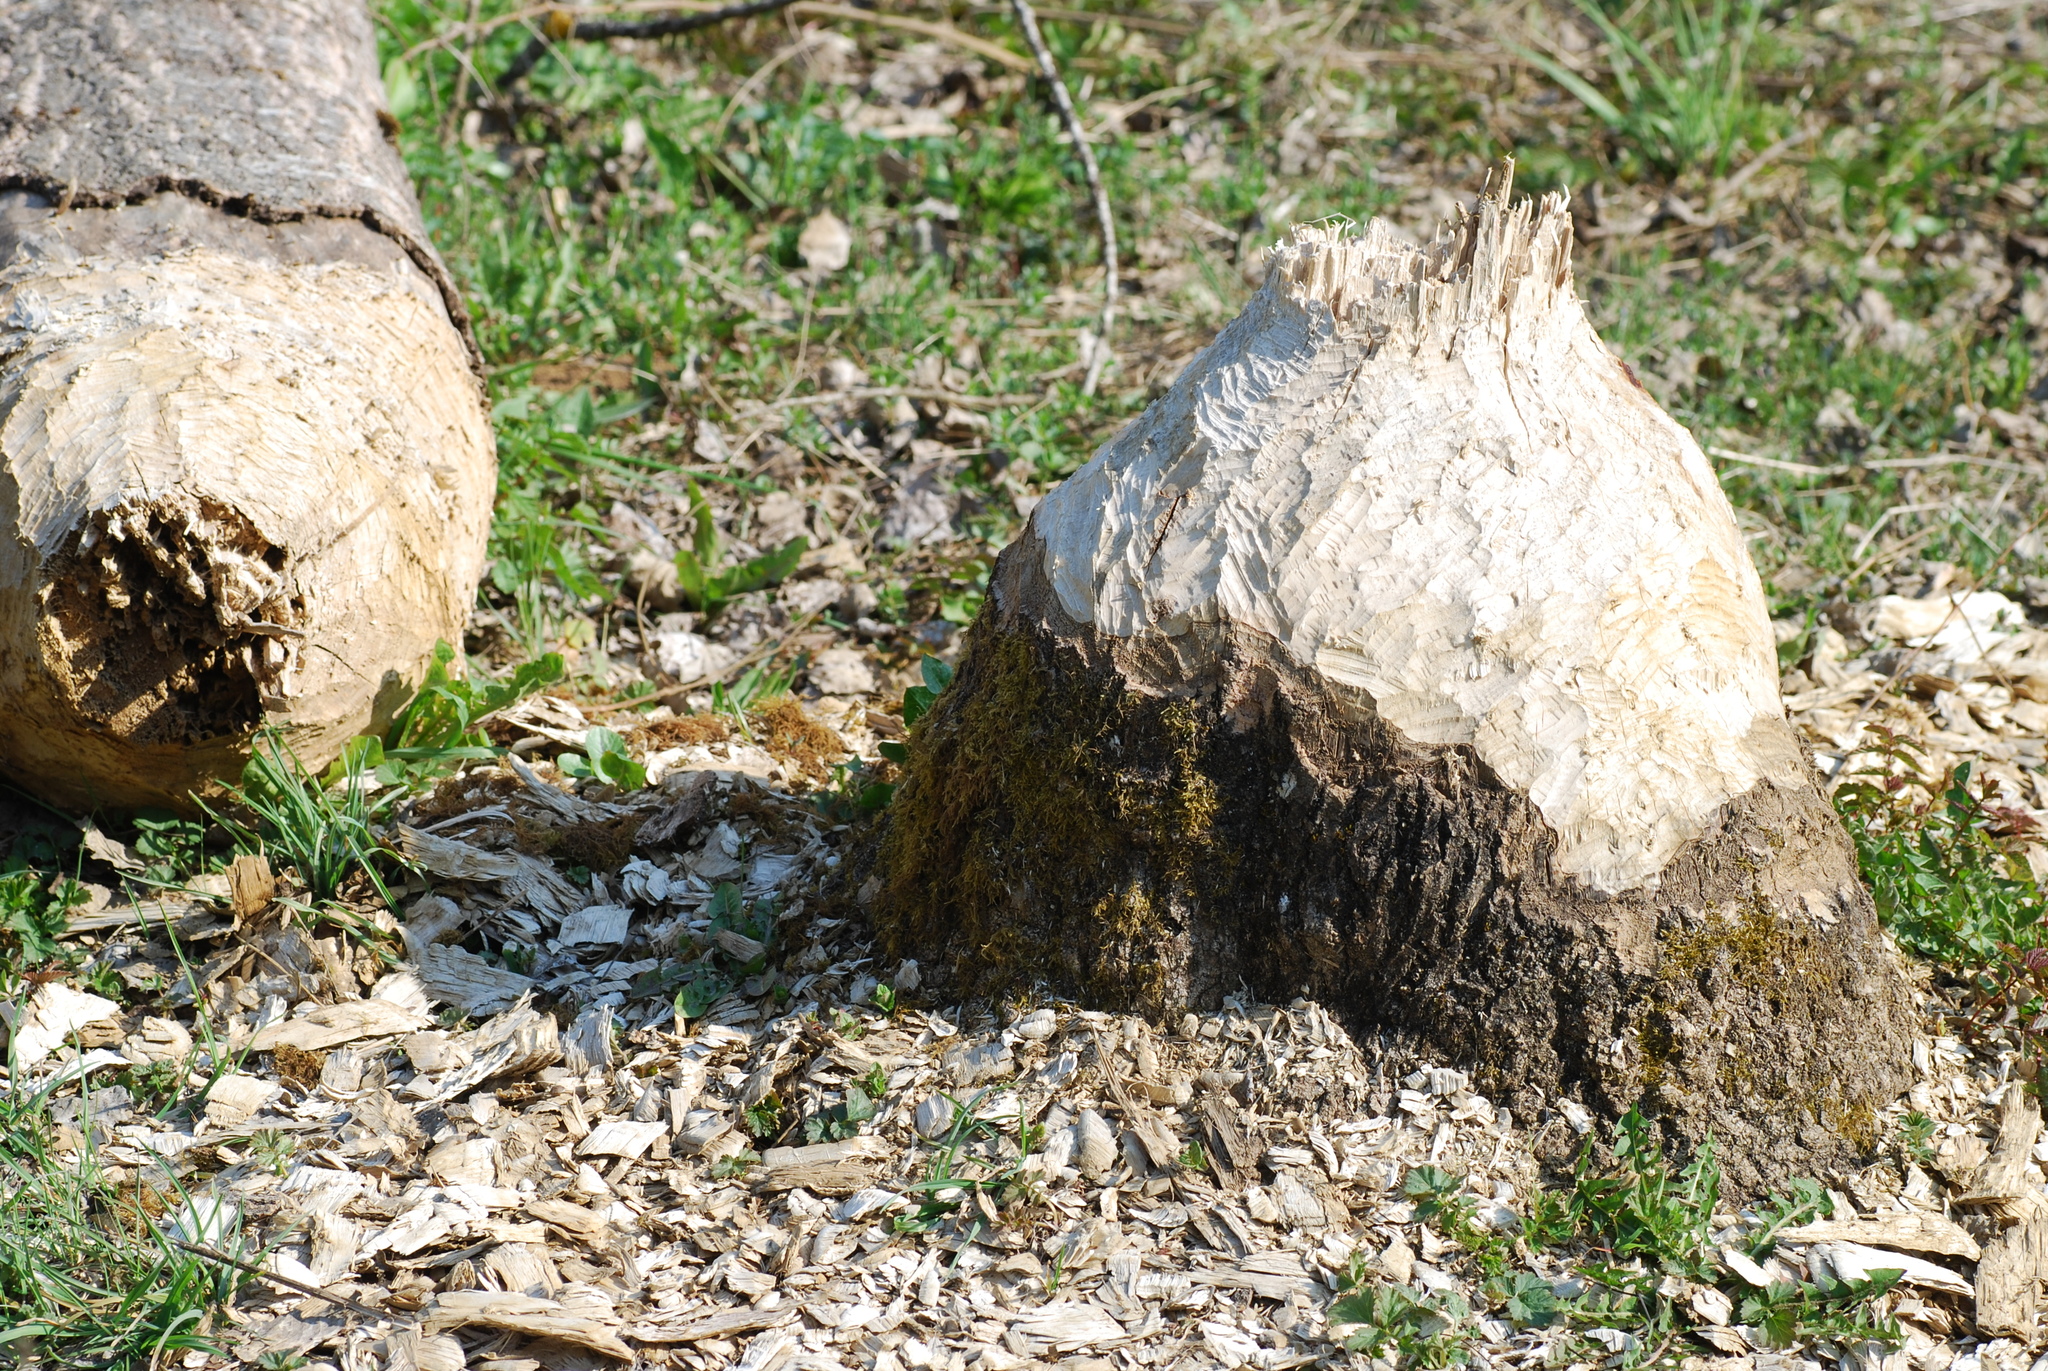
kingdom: Animalia
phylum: Chordata
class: Mammalia
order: Rodentia
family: Castoridae
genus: Castor
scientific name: Castor fiber
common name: Eurasian beaver
